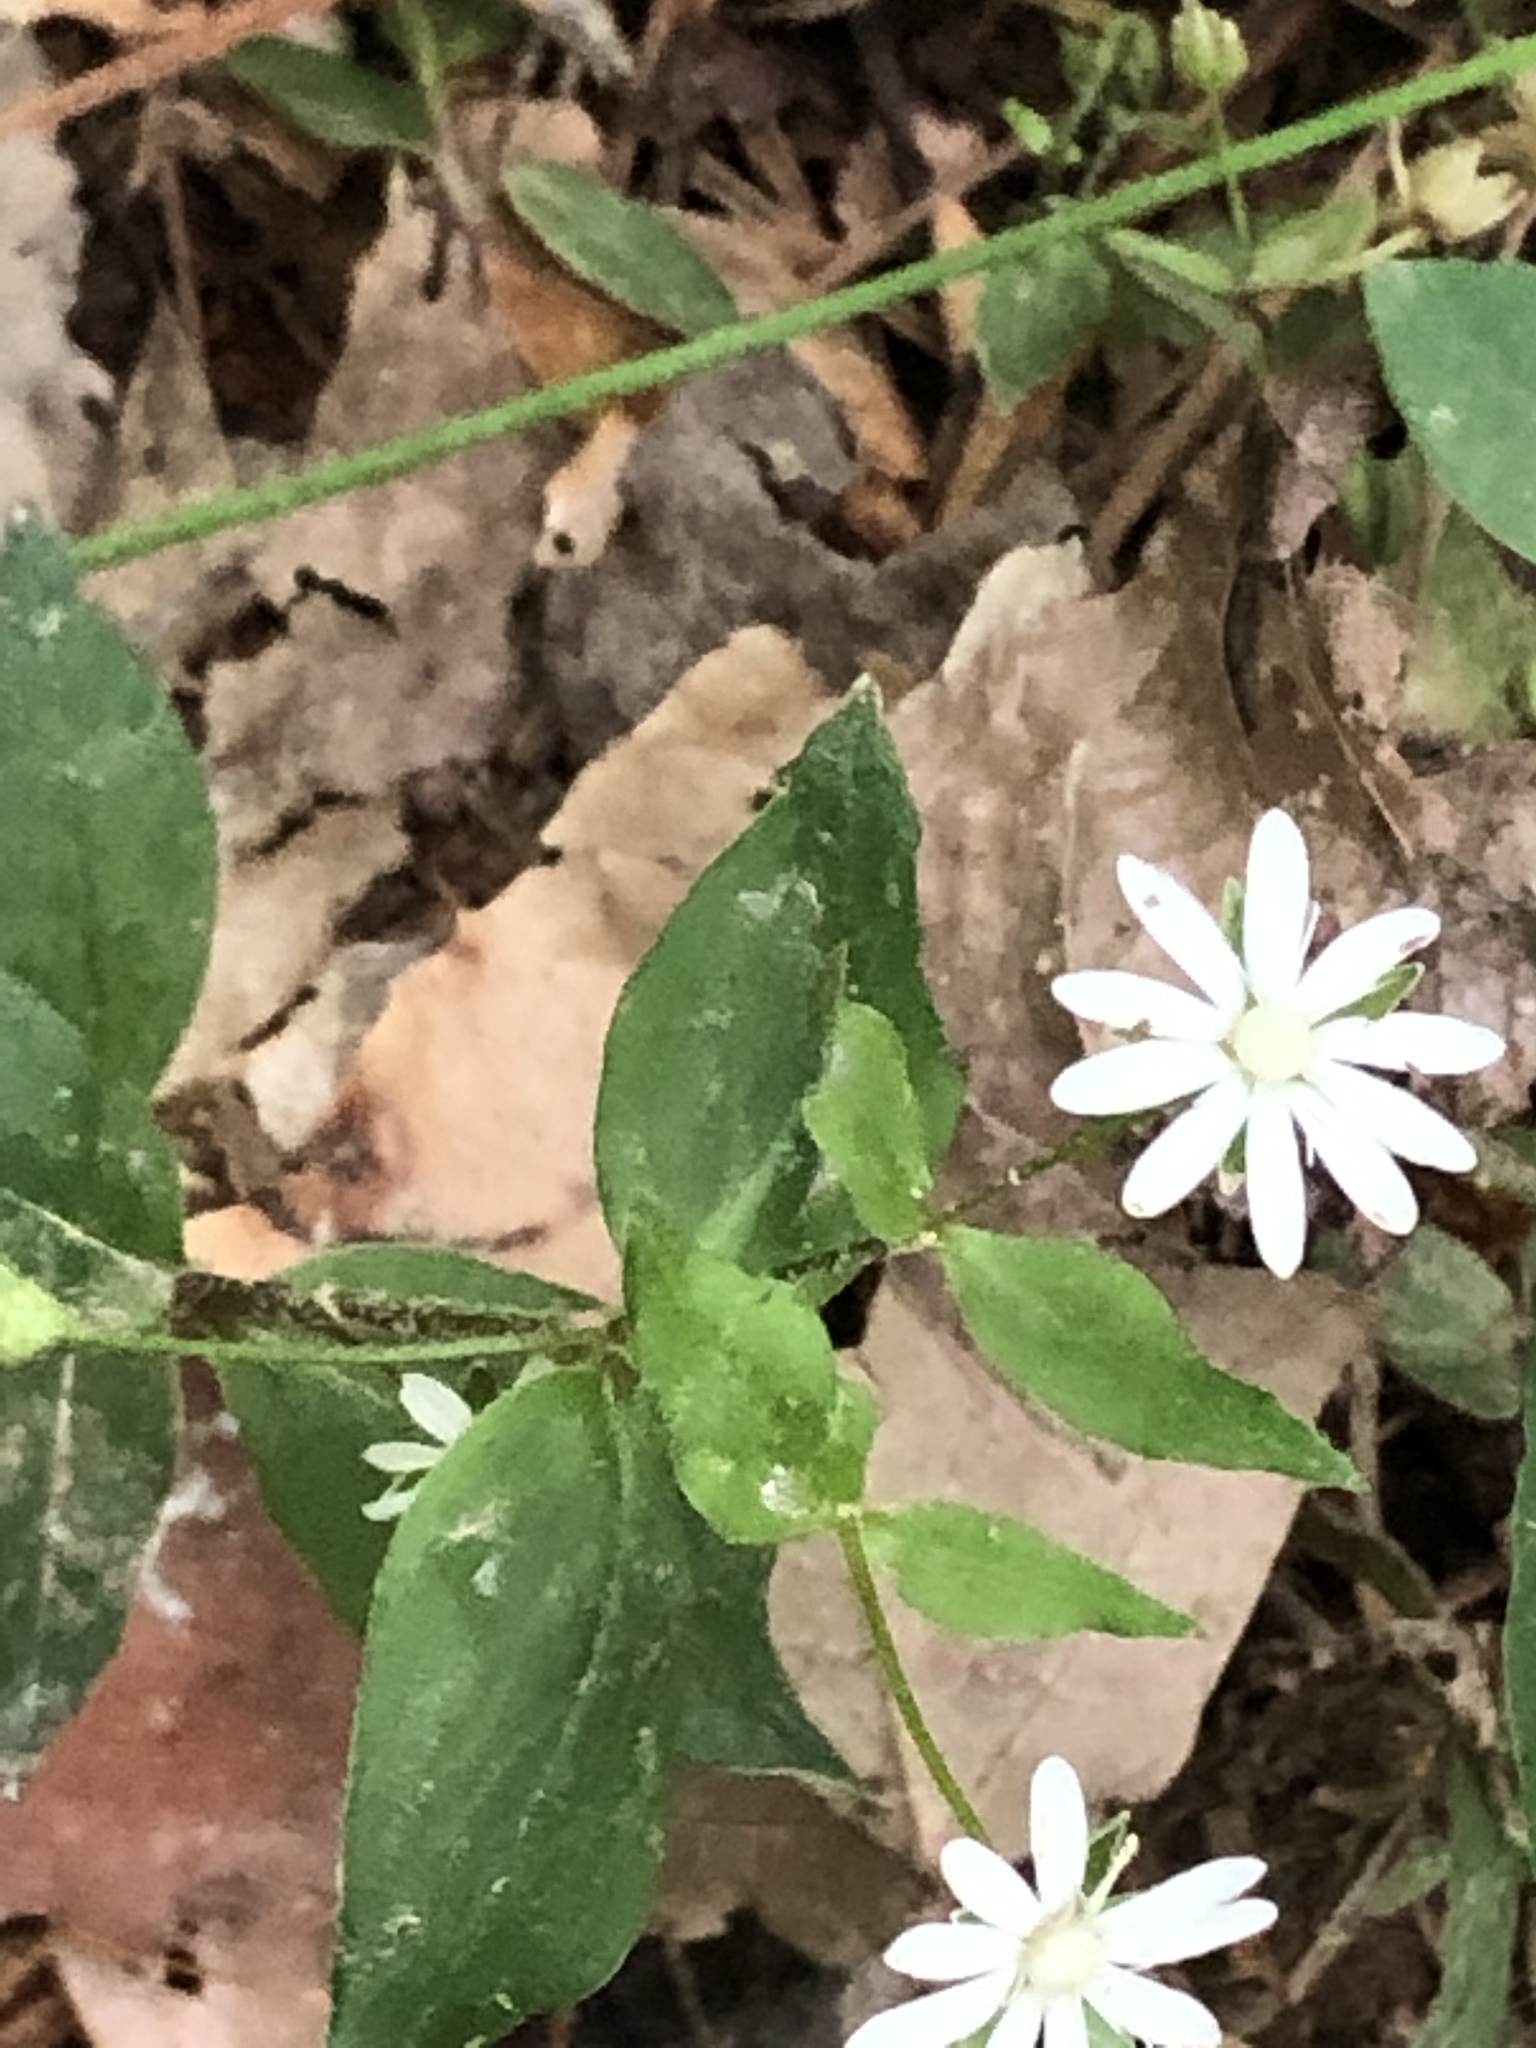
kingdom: Plantae
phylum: Tracheophyta
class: Magnoliopsida
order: Caryophyllales
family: Caryophyllaceae
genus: Stellaria
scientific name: Stellaria pubera
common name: Star chickweed
